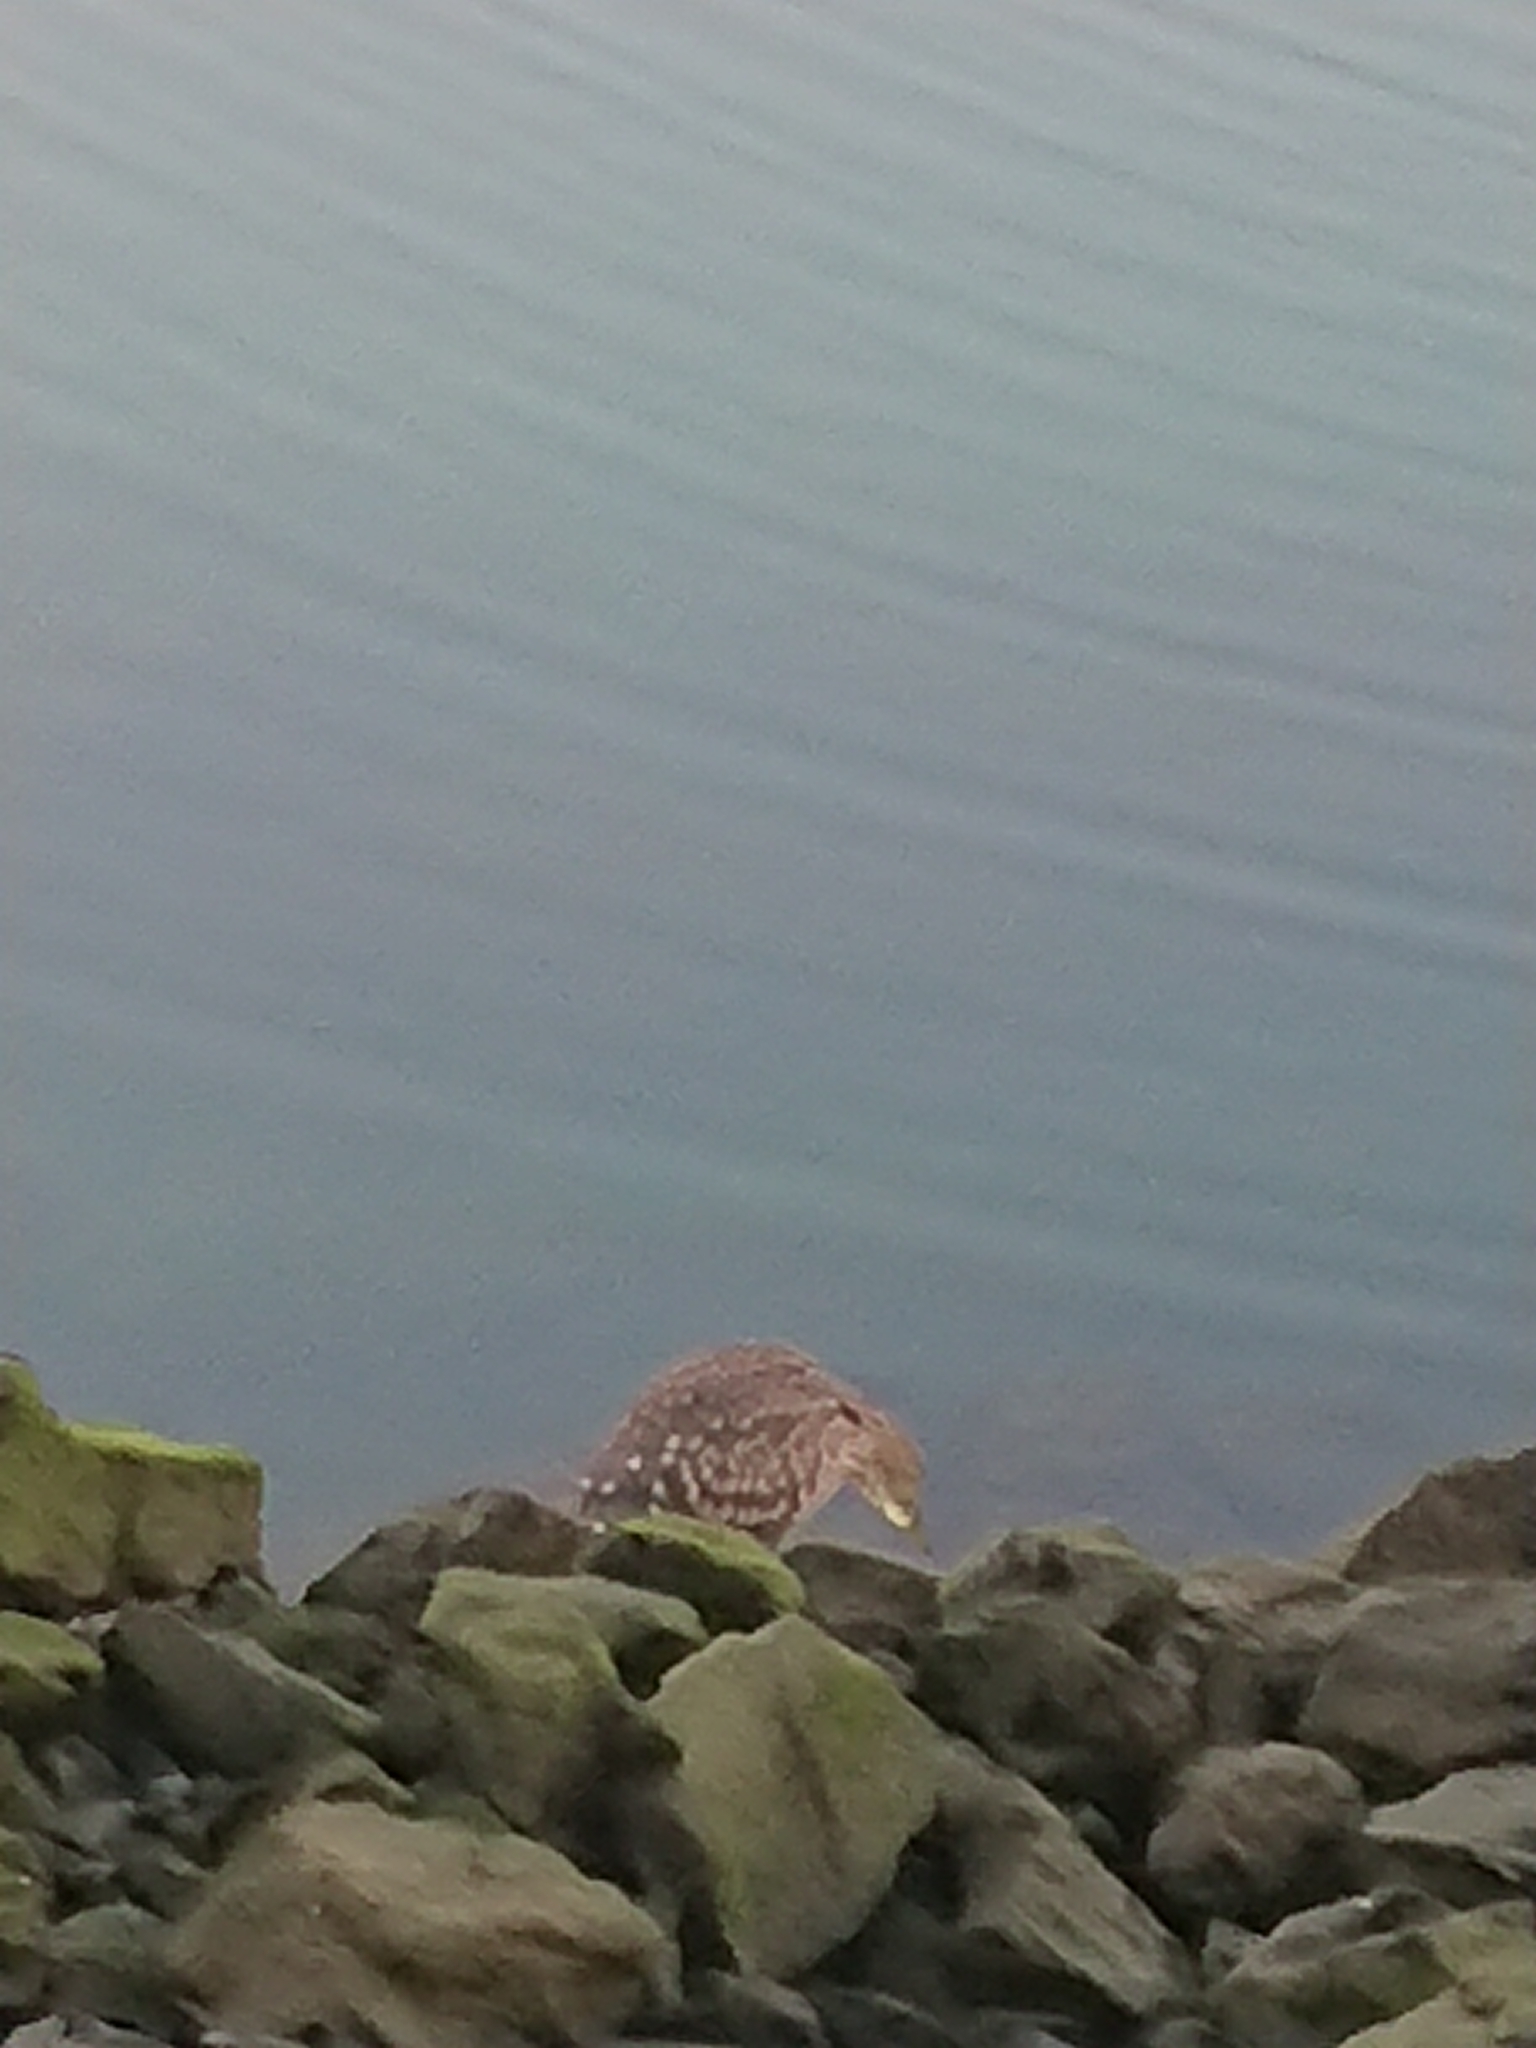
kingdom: Animalia
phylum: Chordata
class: Aves
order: Pelecaniformes
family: Ardeidae
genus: Nycticorax
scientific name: Nycticorax nycticorax
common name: Black-crowned night heron
